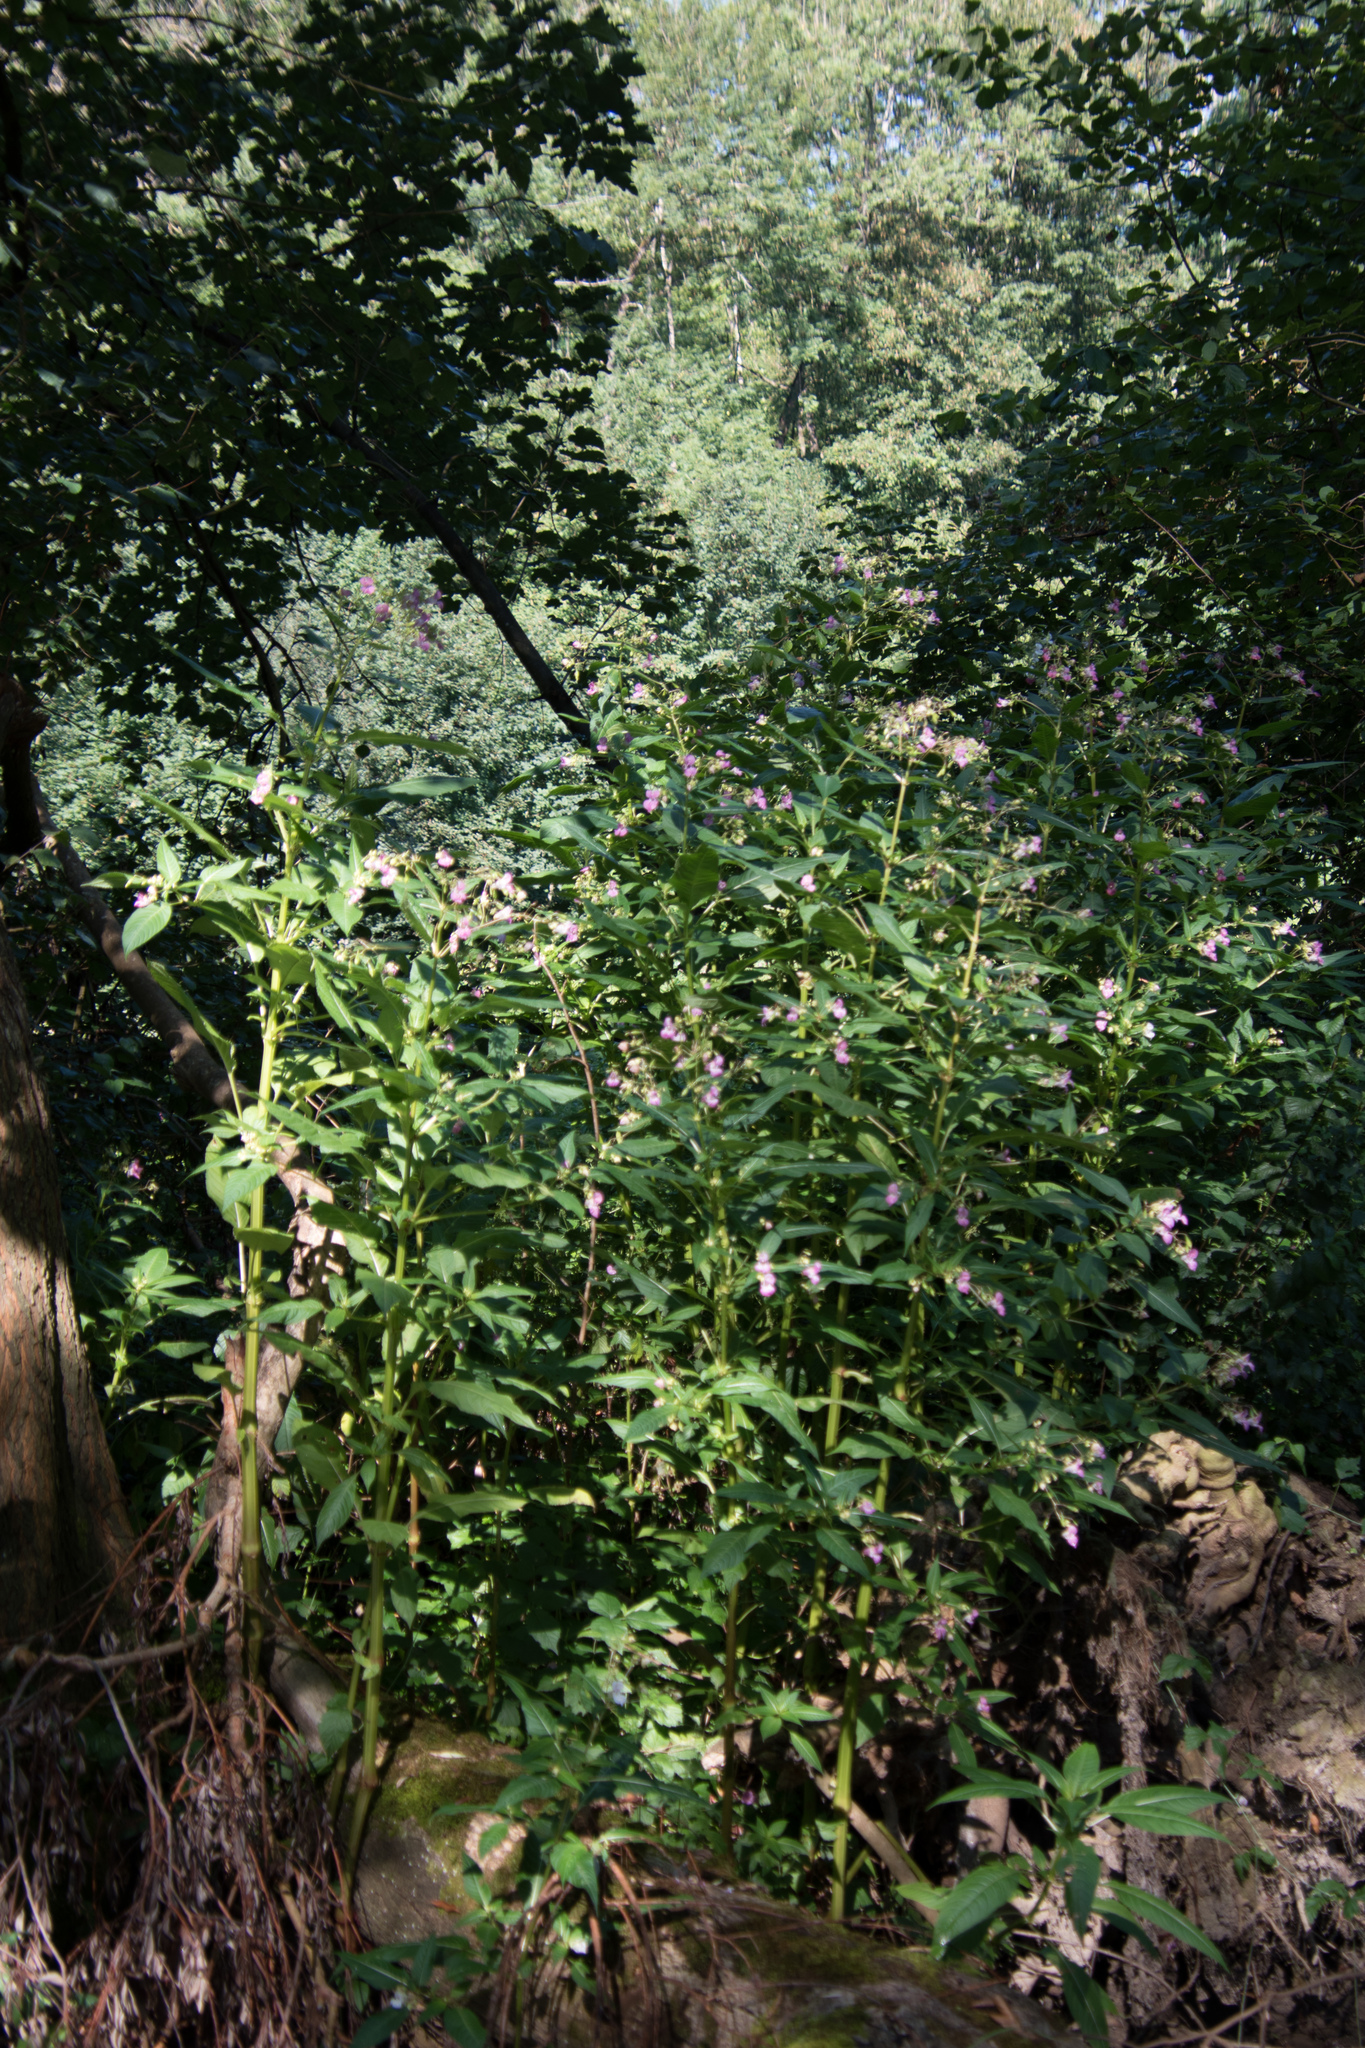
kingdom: Plantae
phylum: Tracheophyta
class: Magnoliopsida
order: Ericales
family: Balsaminaceae
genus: Impatiens
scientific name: Impatiens glandulifera
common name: Himalayan balsam
